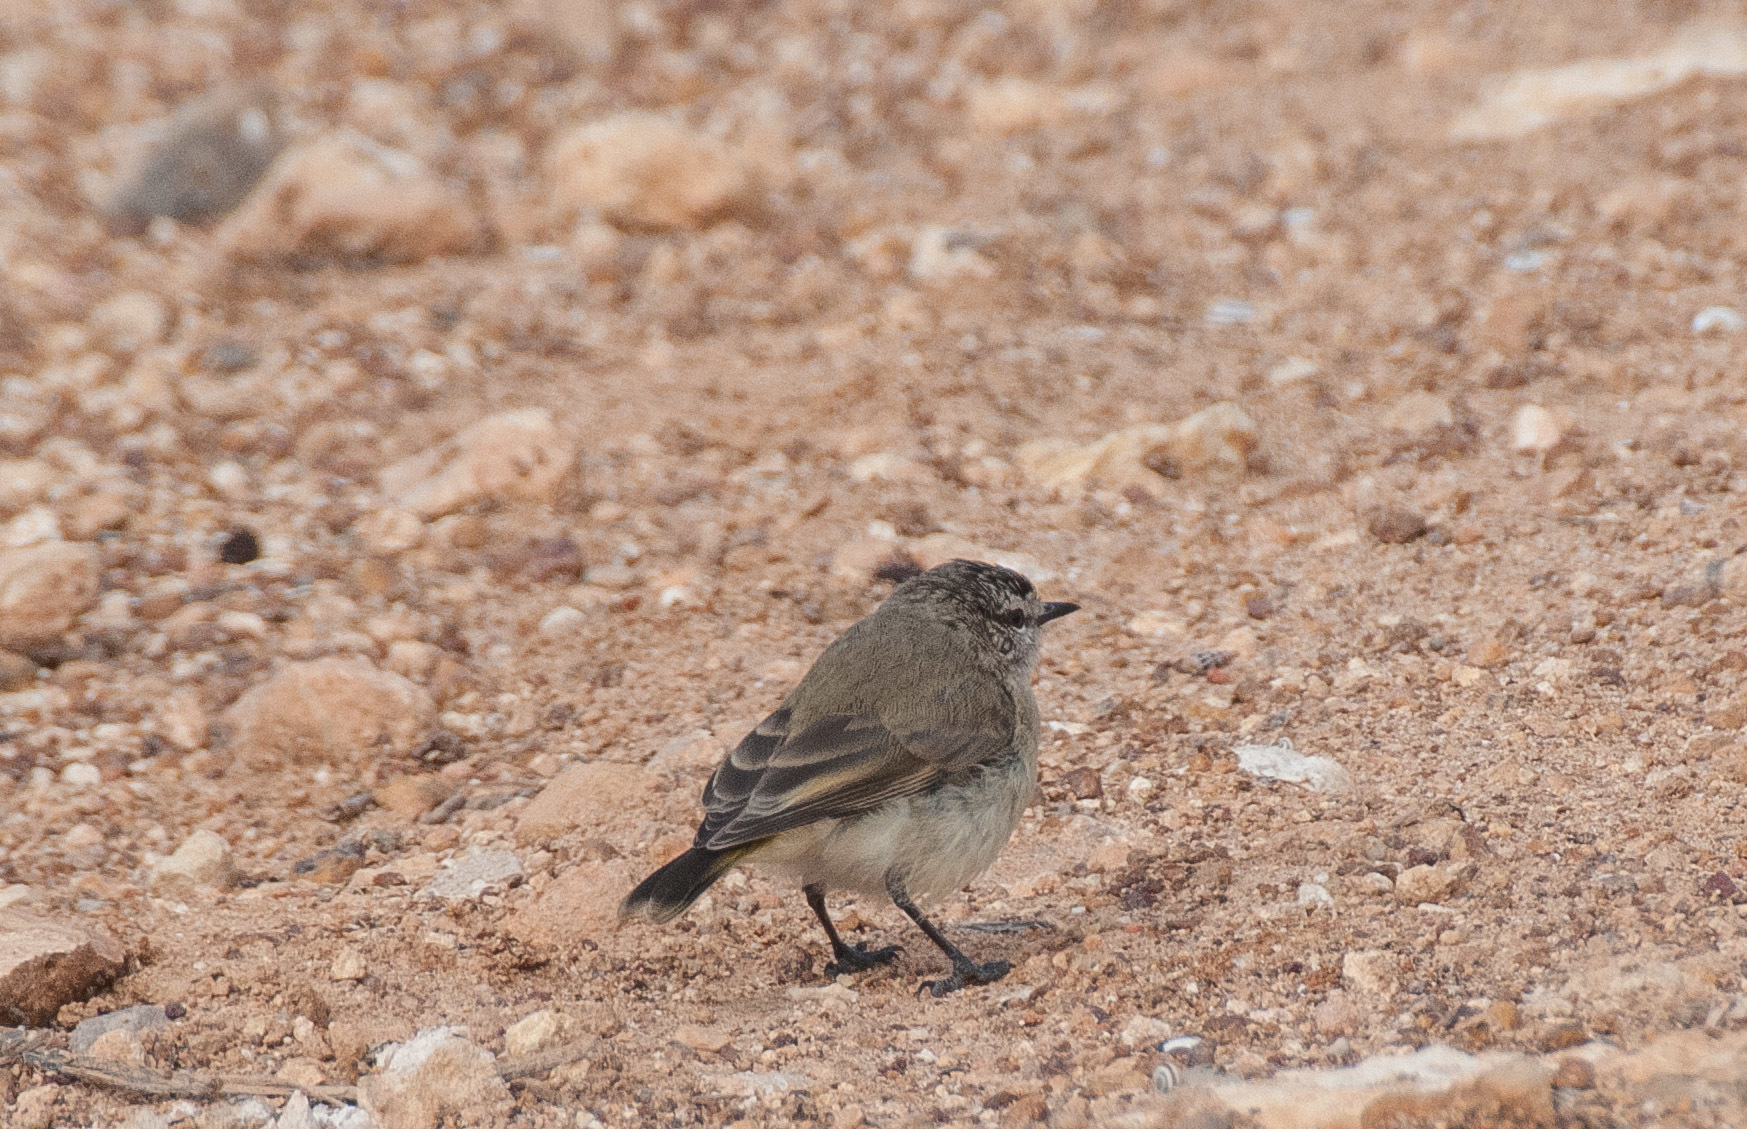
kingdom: Animalia
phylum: Chordata
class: Aves
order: Passeriformes
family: Acanthizidae
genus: Acanthiza
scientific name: Acanthiza chrysorrhoa
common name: Yellow-rumped thornbill
